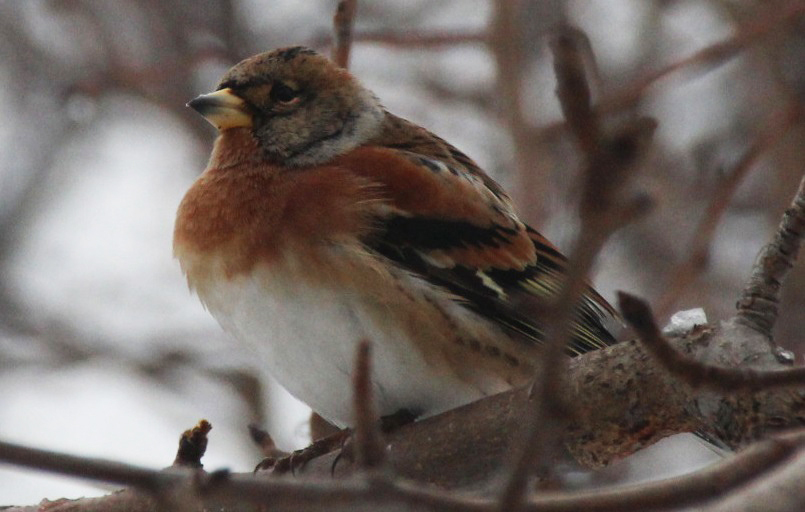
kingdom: Animalia
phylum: Chordata
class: Aves
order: Passeriformes
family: Fringillidae
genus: Fringilla
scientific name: Fringilla montifringilla
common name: Brambling
